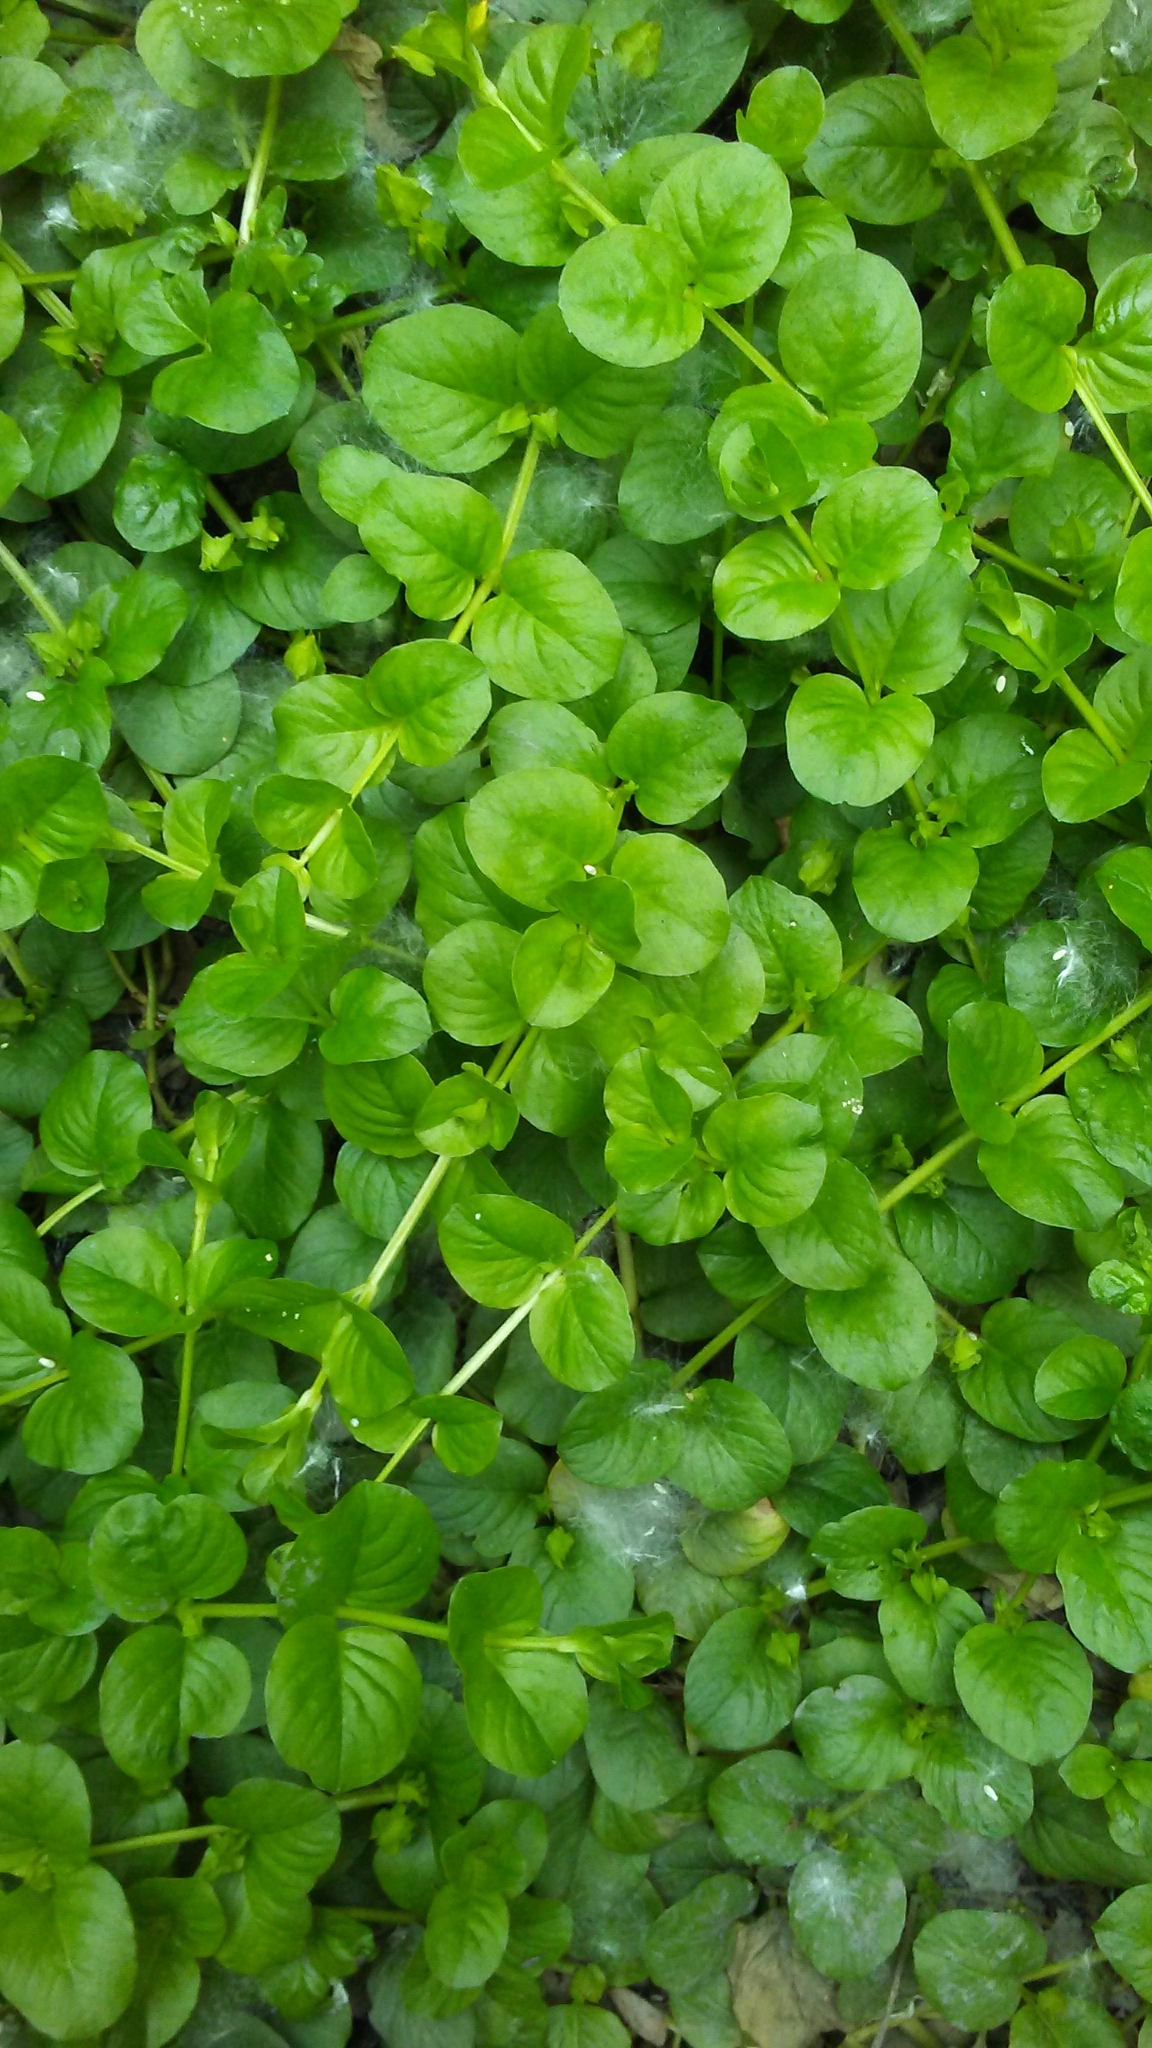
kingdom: Plantae
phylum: Tracheophyta
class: Magnoliopsida
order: Ericales
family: Primulaceae
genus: Lysimachia
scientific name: Lysimachia nummularia
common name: Moneywort
